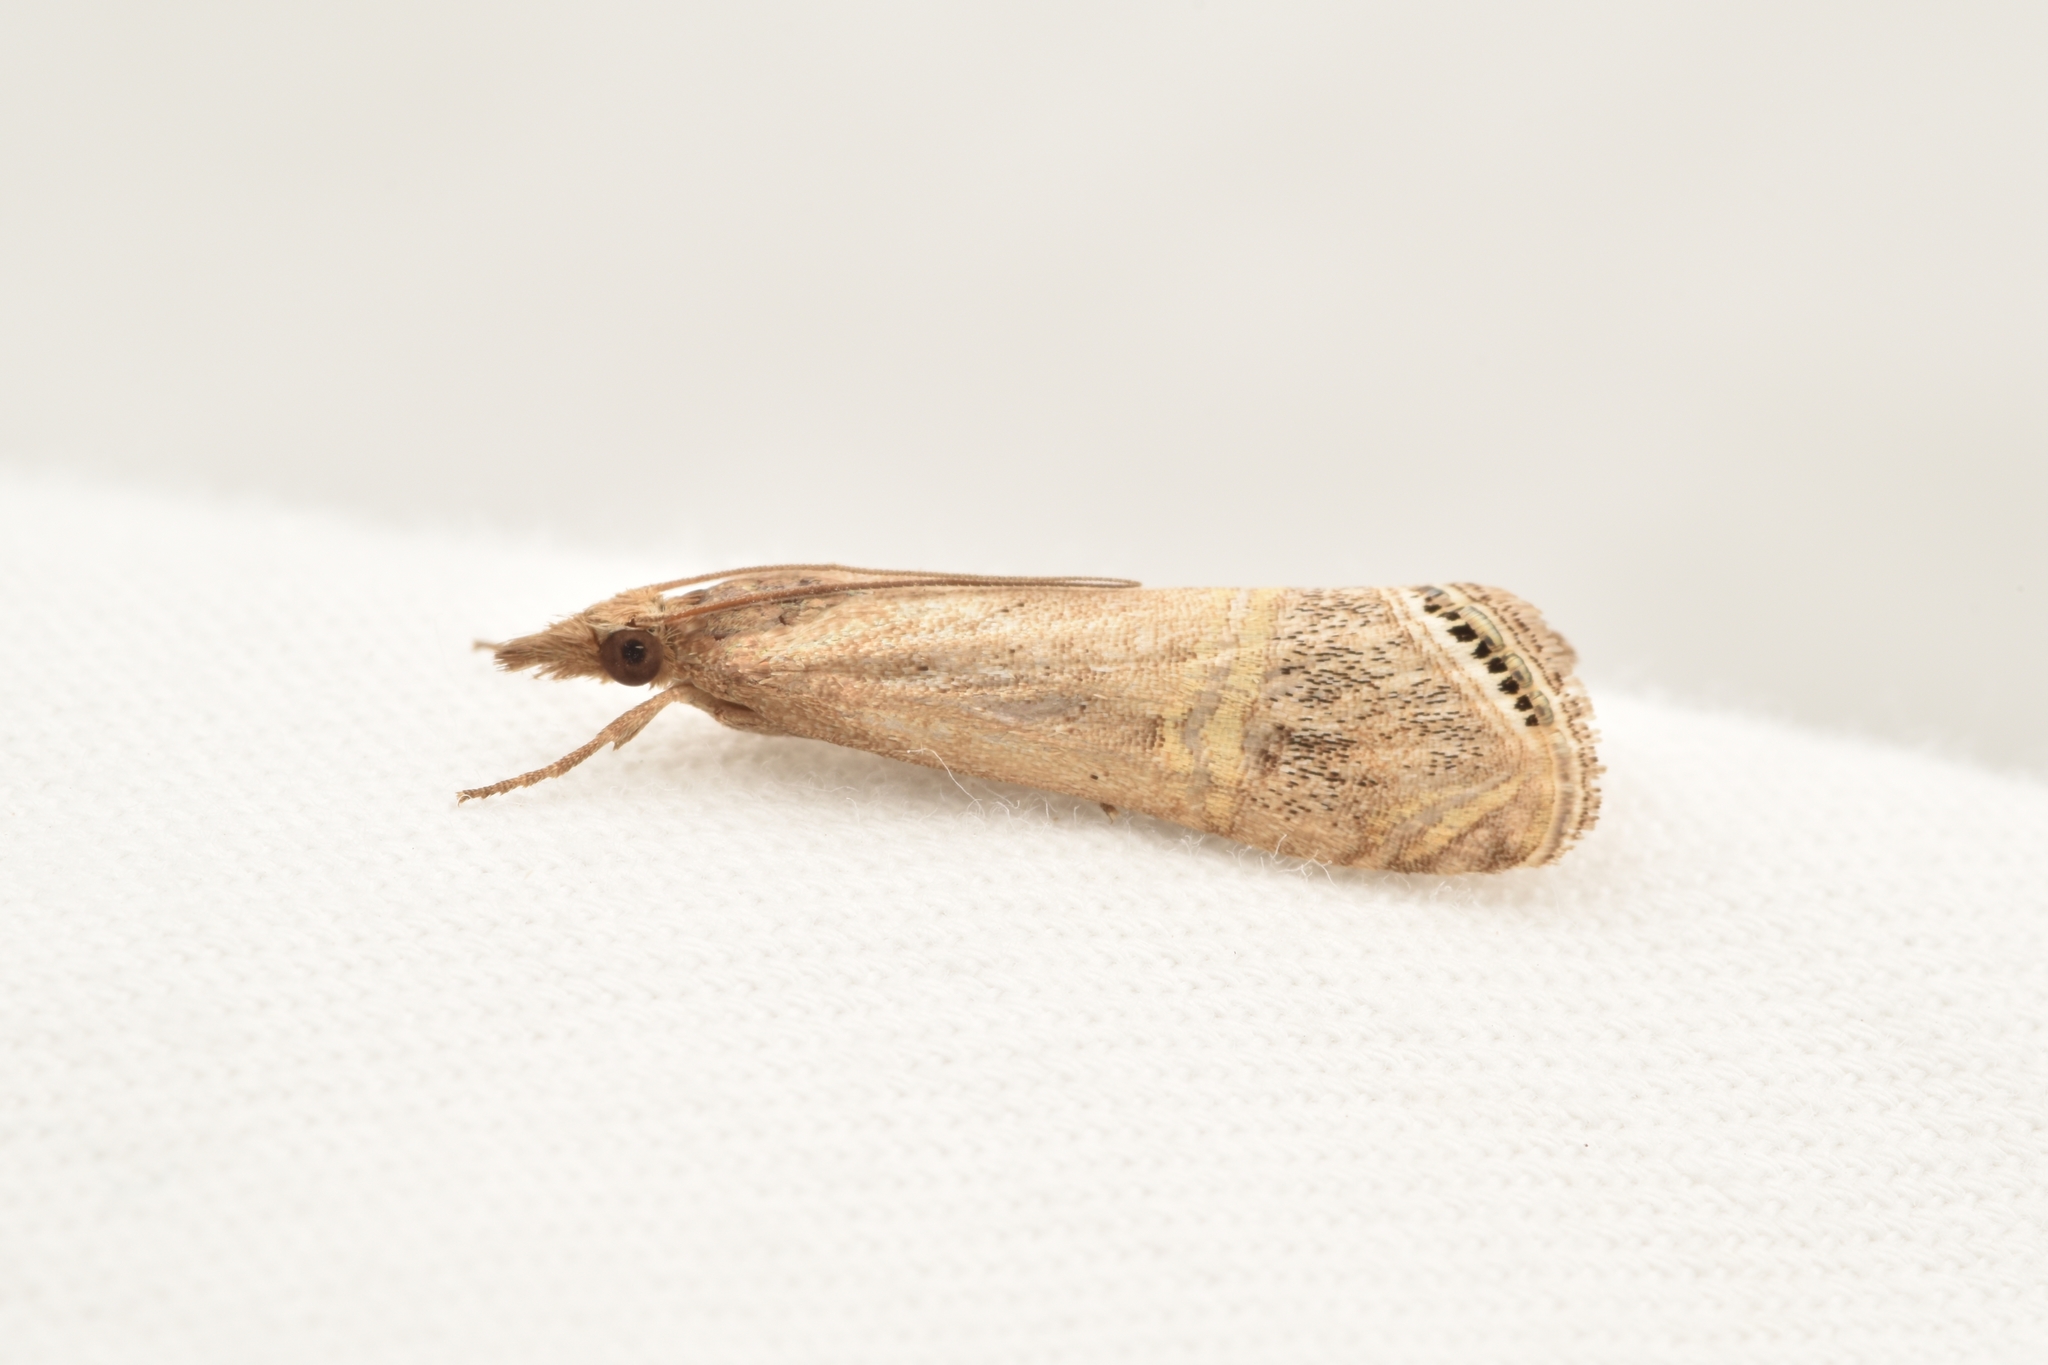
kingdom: Animalia
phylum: Arthropoda
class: Insecta
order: Lepidoptera
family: Crambidae
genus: Euchromius
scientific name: Euchromius ocellea
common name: Necklace veneer moth
